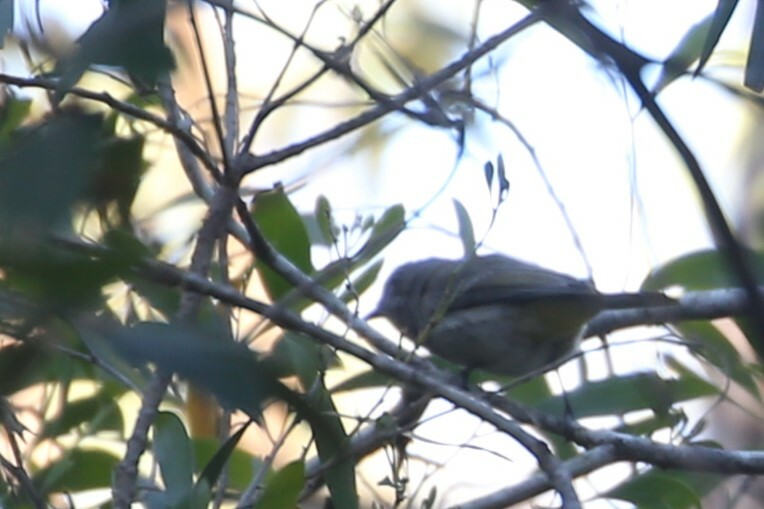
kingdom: Animalia
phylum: Chordata
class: Aves
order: Passeriformes
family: Pachycephalidae
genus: Pachycephala
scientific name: Pachycephala pectoralis
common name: Australian golden whistler
